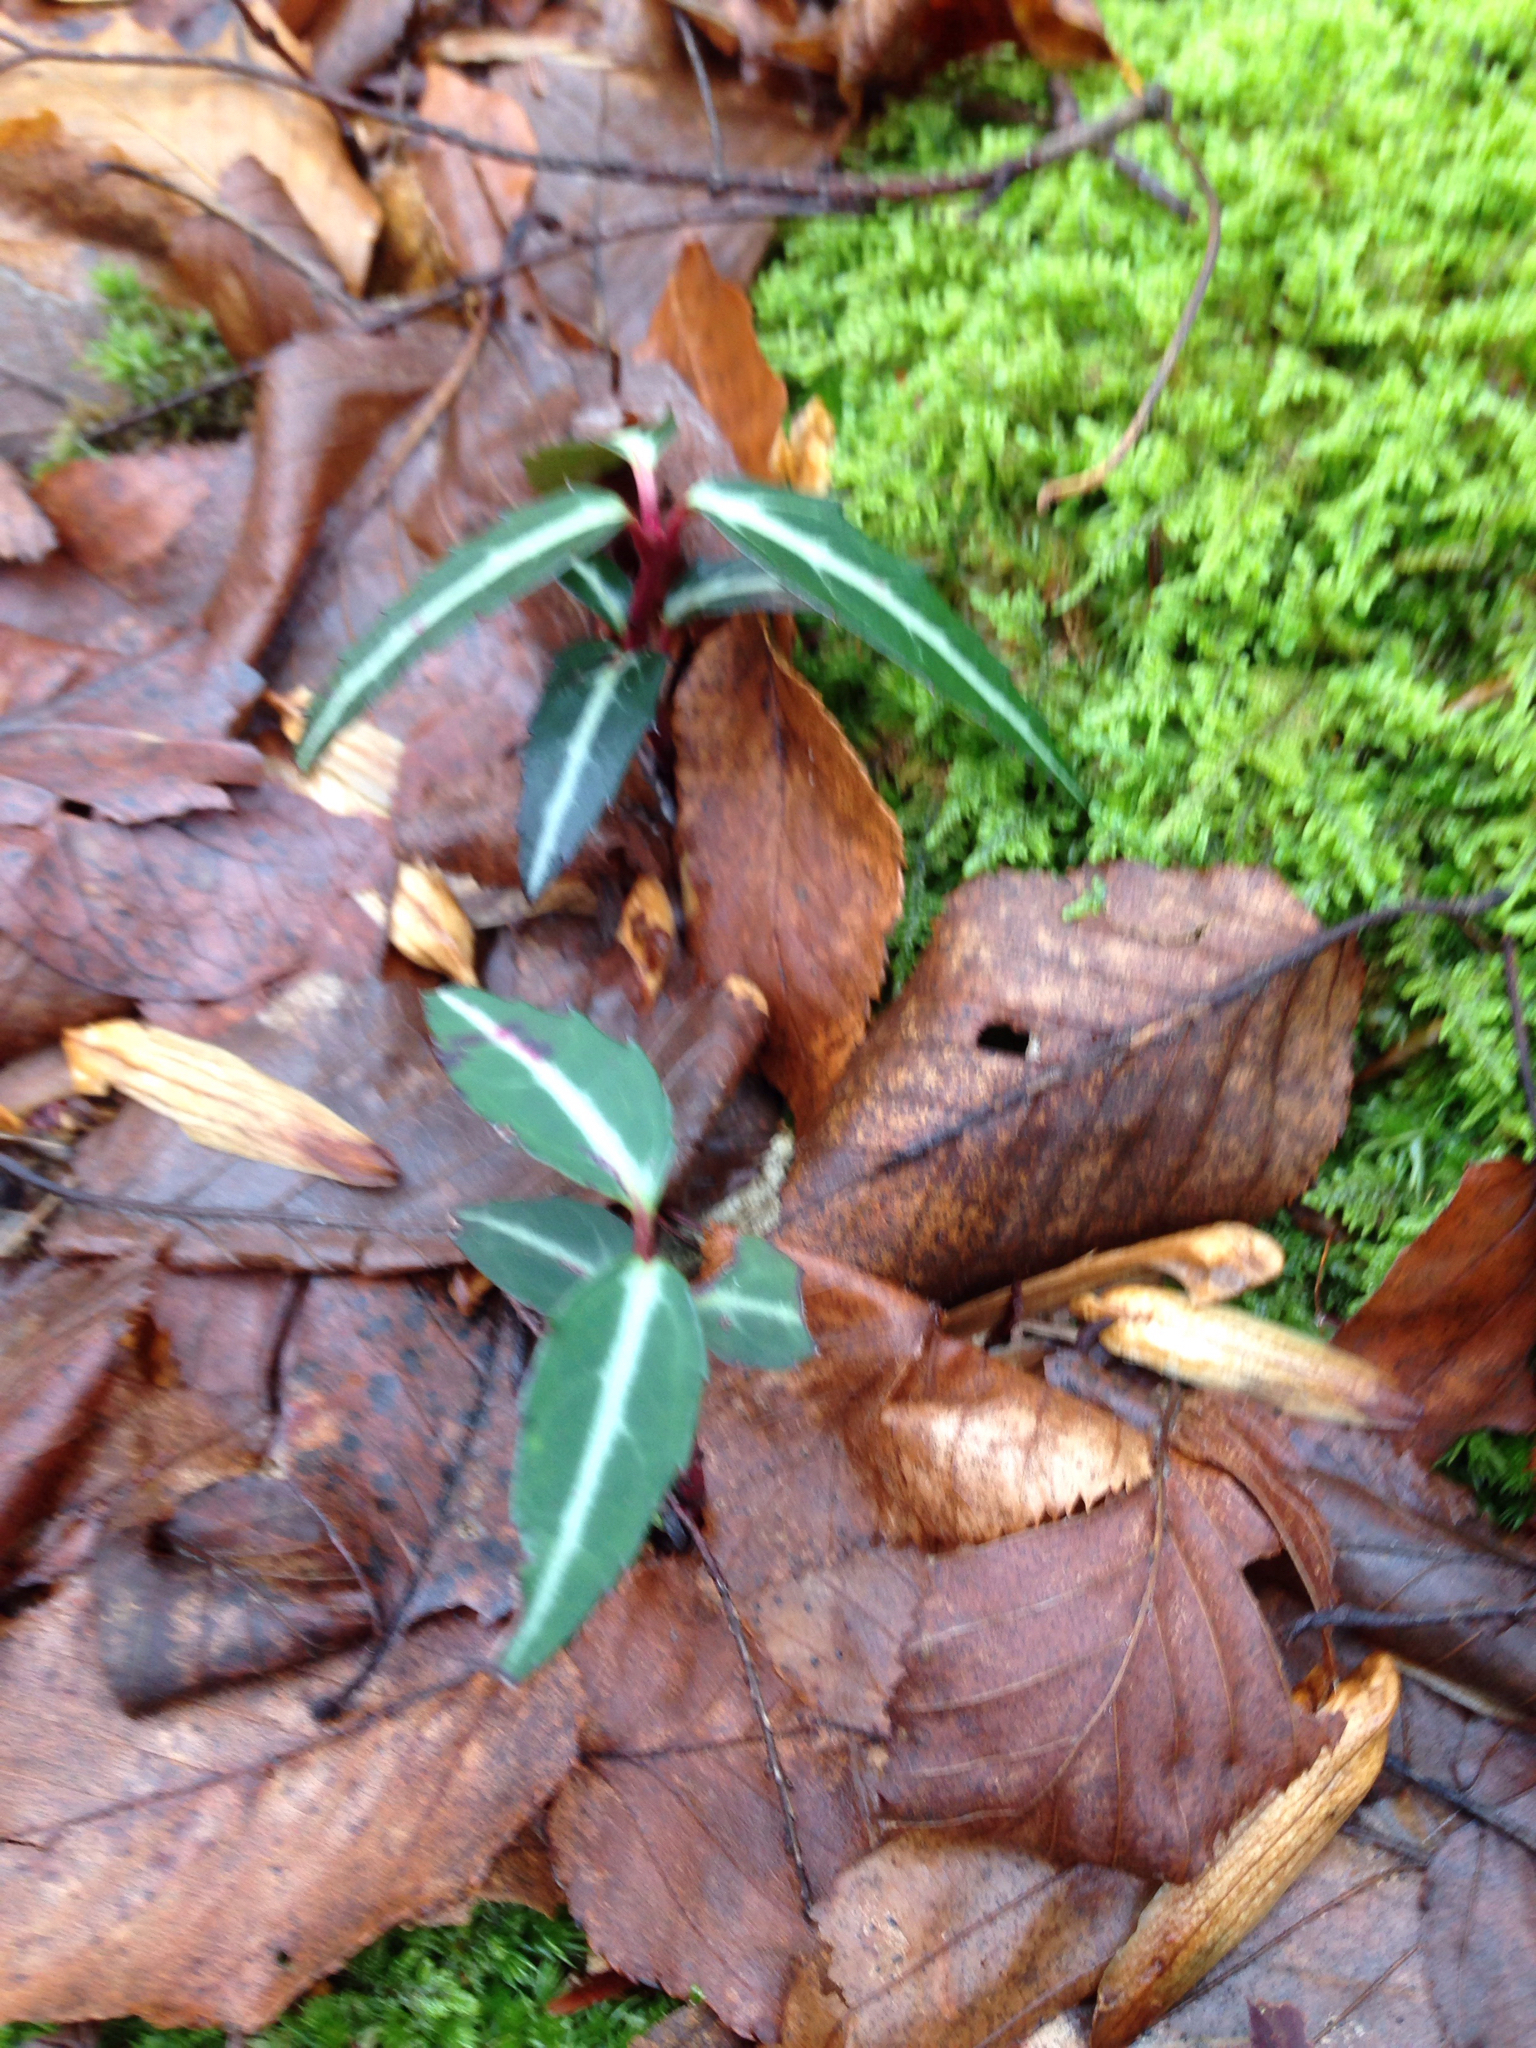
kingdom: Plantae
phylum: Tracheophyta
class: Magnoliopsida
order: Ericales
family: Ericaceae
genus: Chimaphila
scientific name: Chimaphila maculata
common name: Spotted pipsissewa
